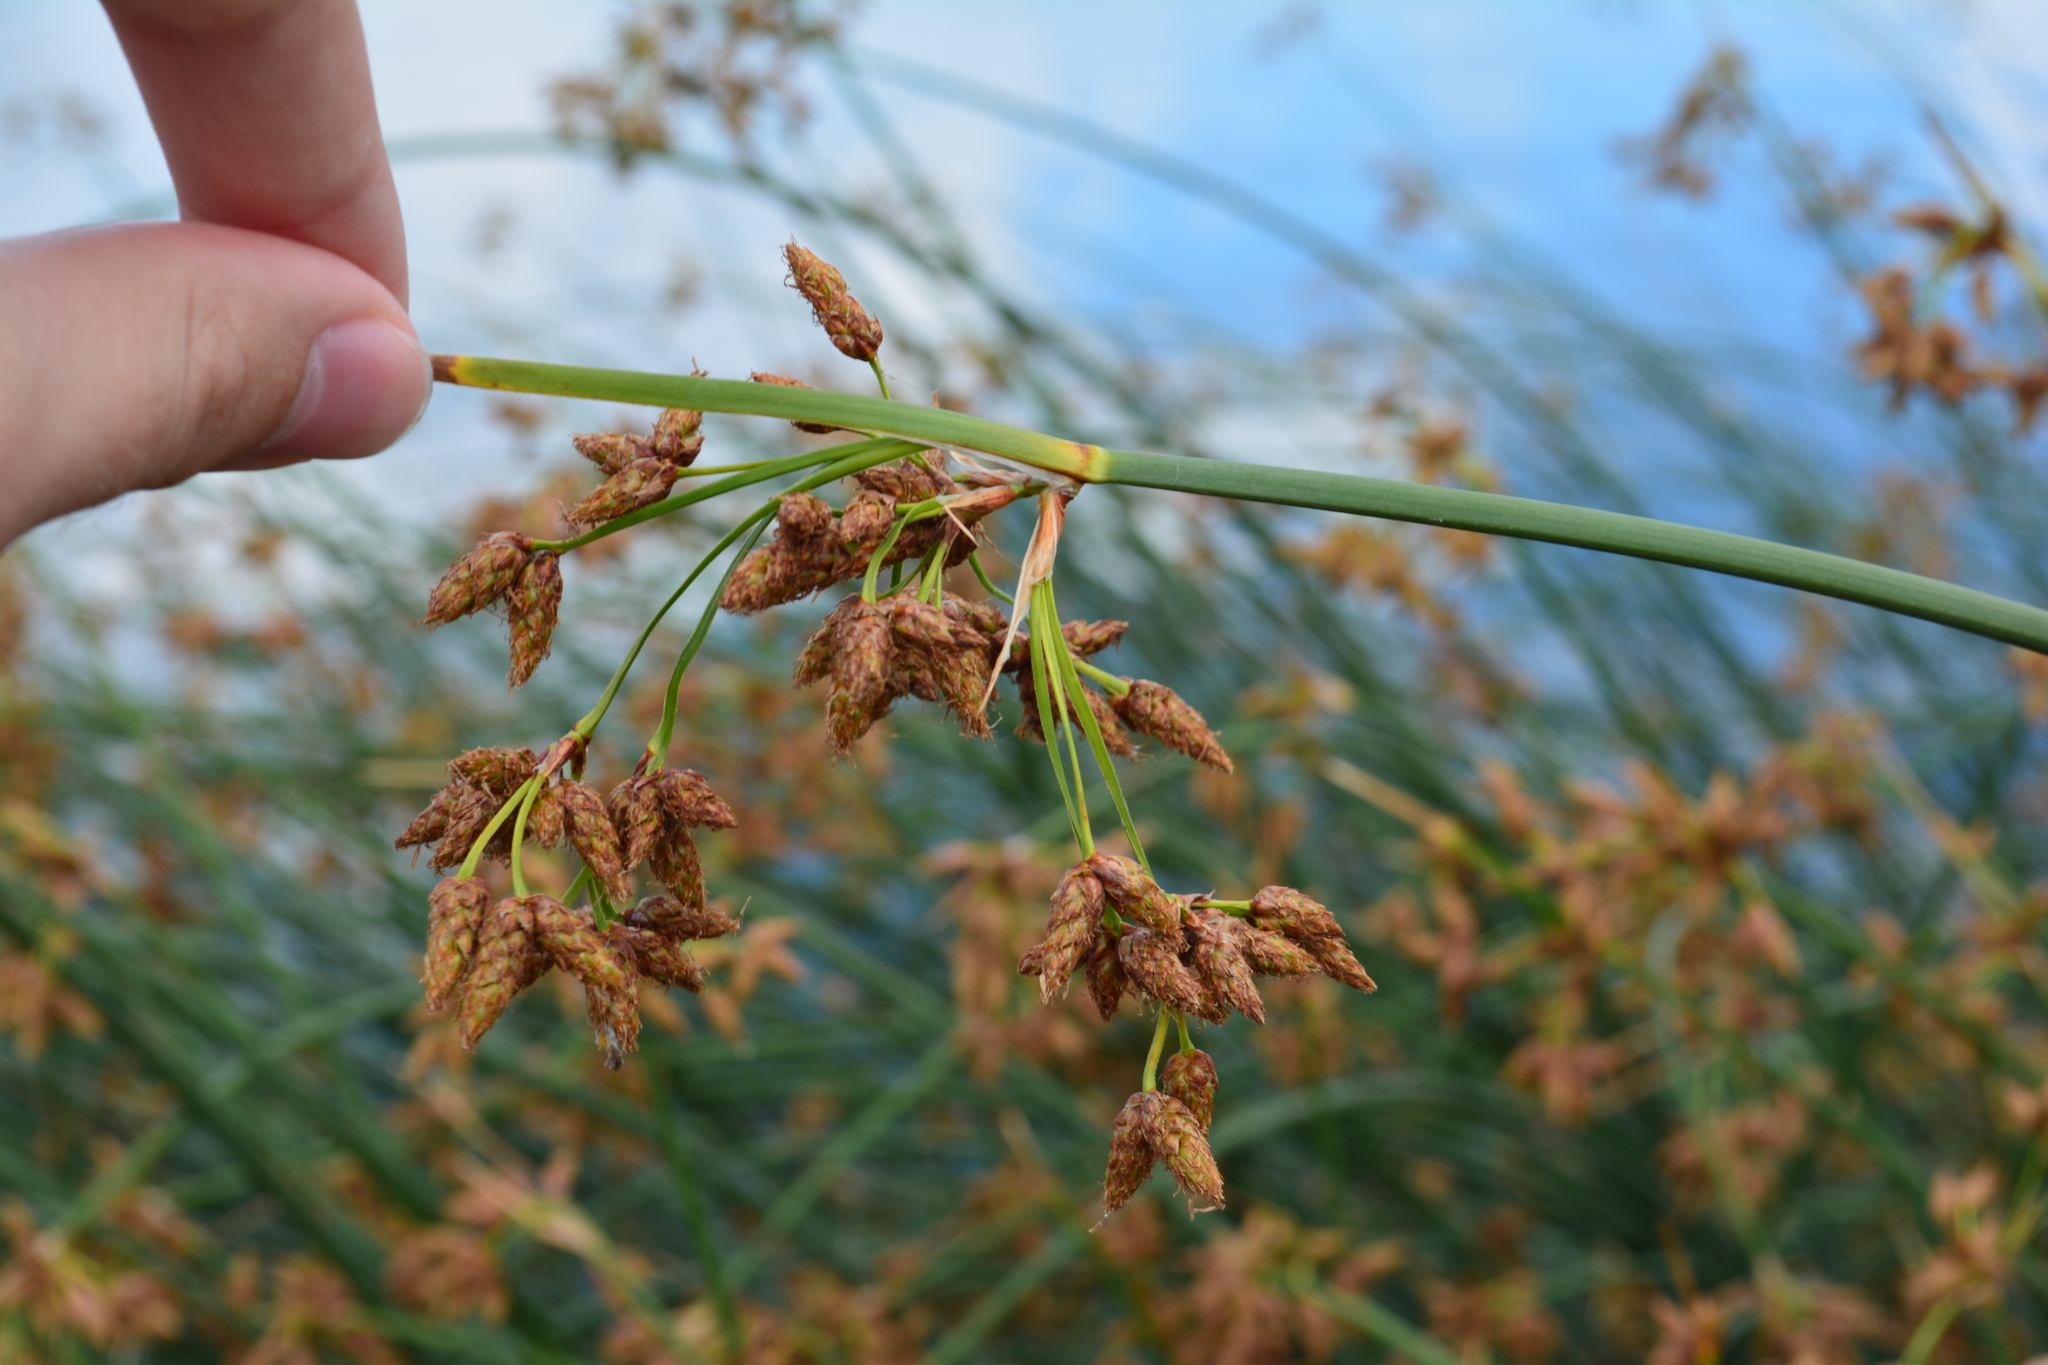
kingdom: Plantae
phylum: Tracheophyta
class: Liliopsida
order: Poales
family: Cyperaceae
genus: Schoenoplectus
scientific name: Schoenoplectus lacustris
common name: Common club-rush
